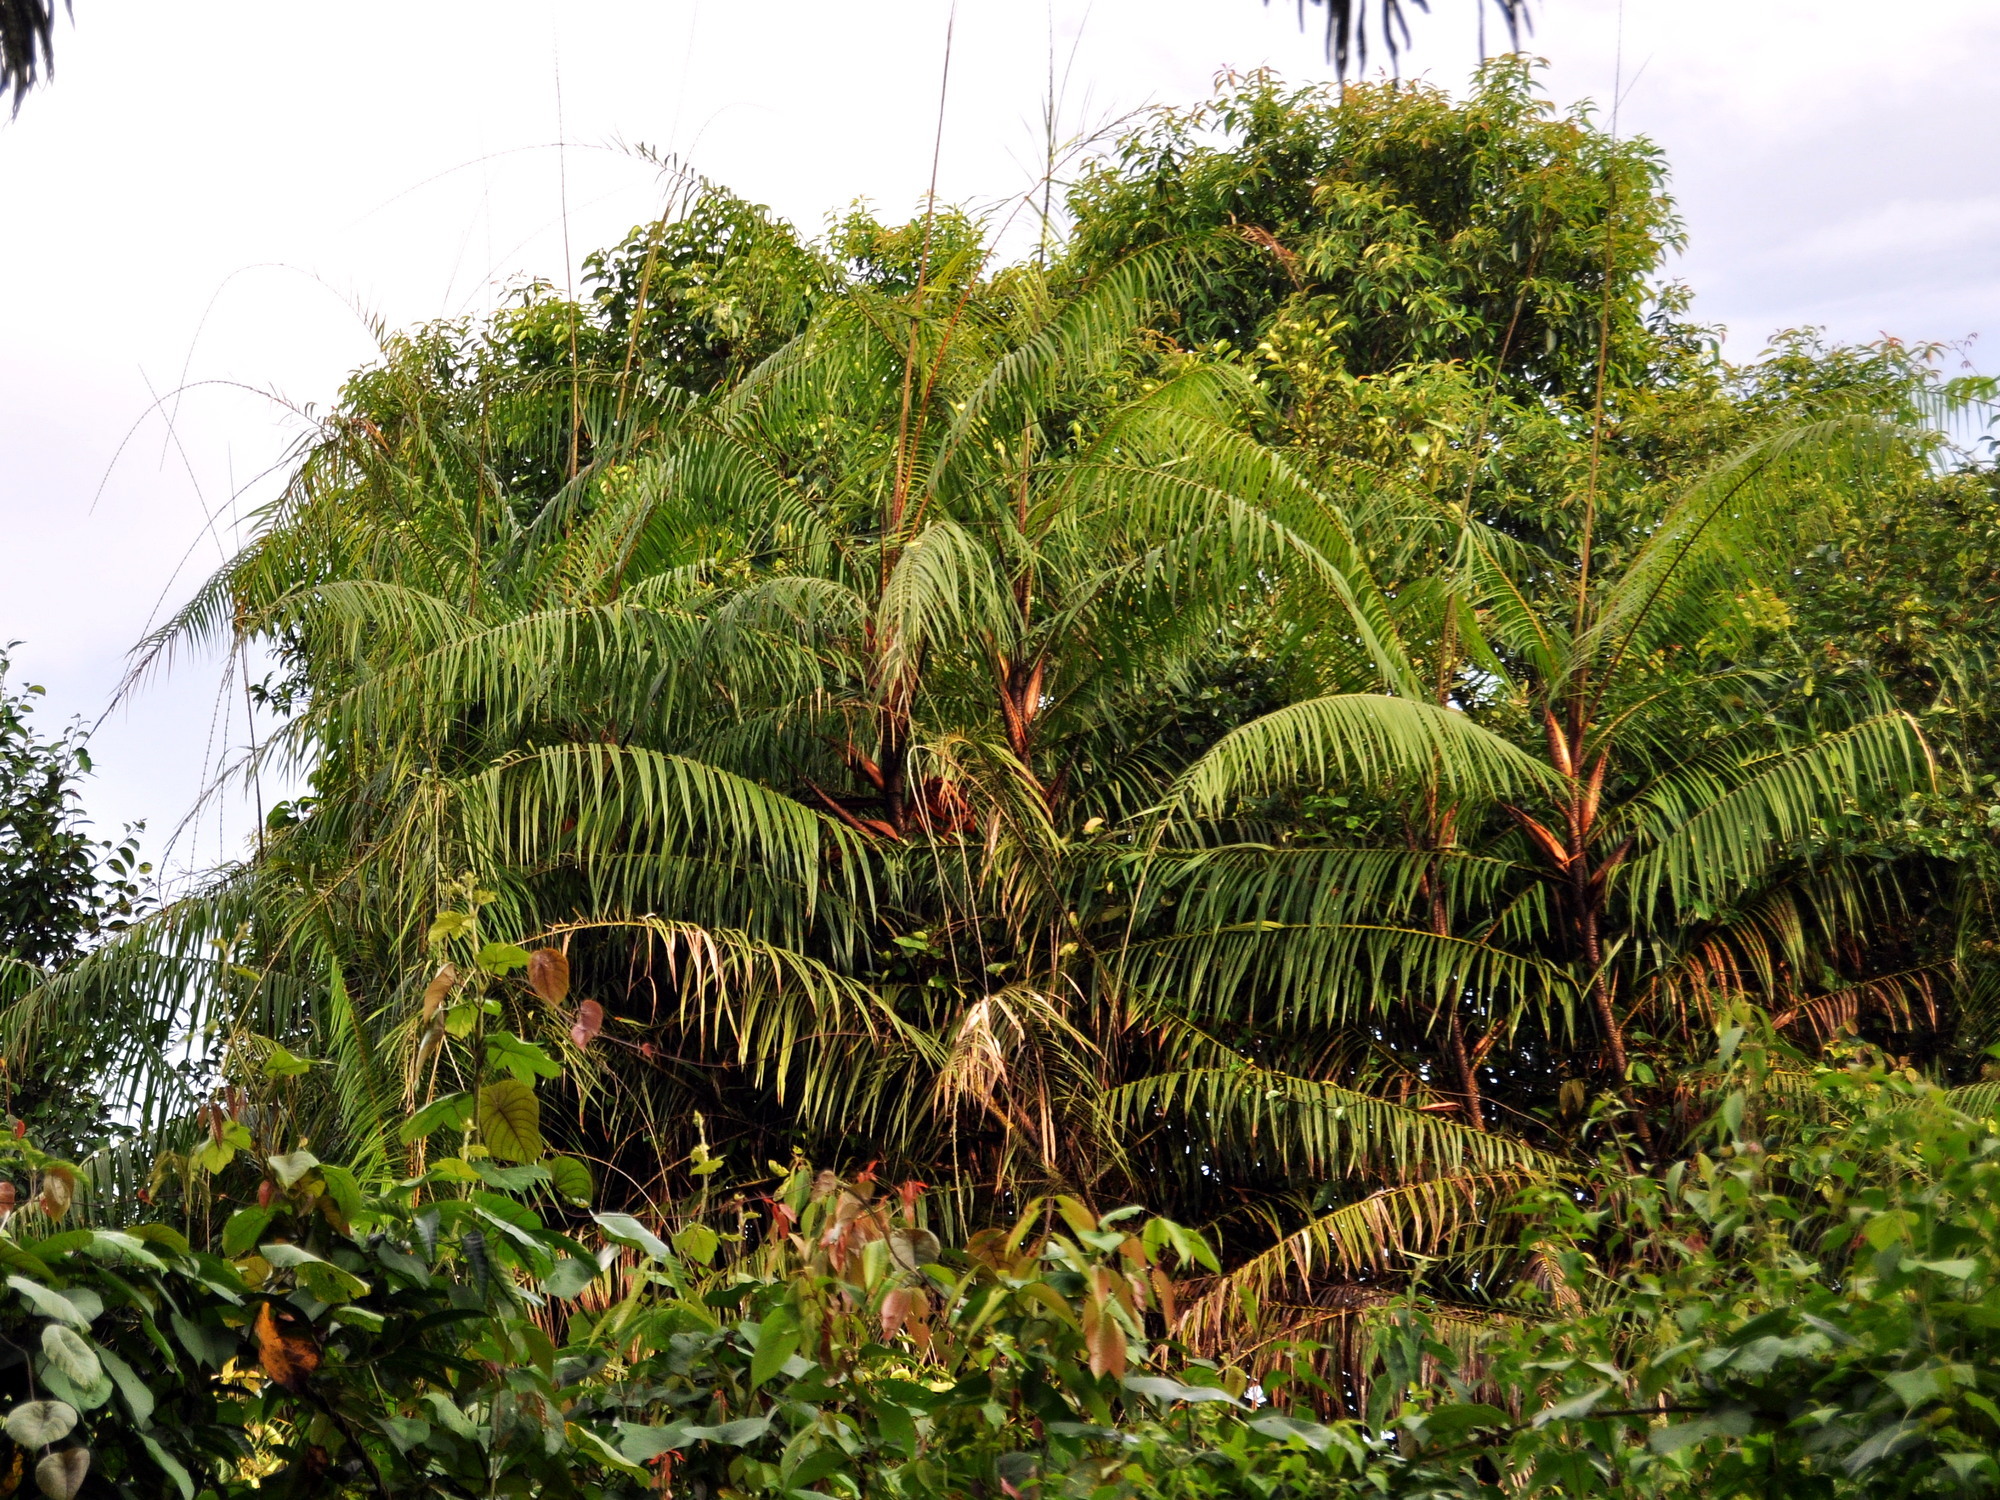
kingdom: Plantae
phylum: Tracheophyta
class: Liliopsida
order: Arecales
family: Arecaceae
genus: Calamus
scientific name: Calamus melanochaetes
